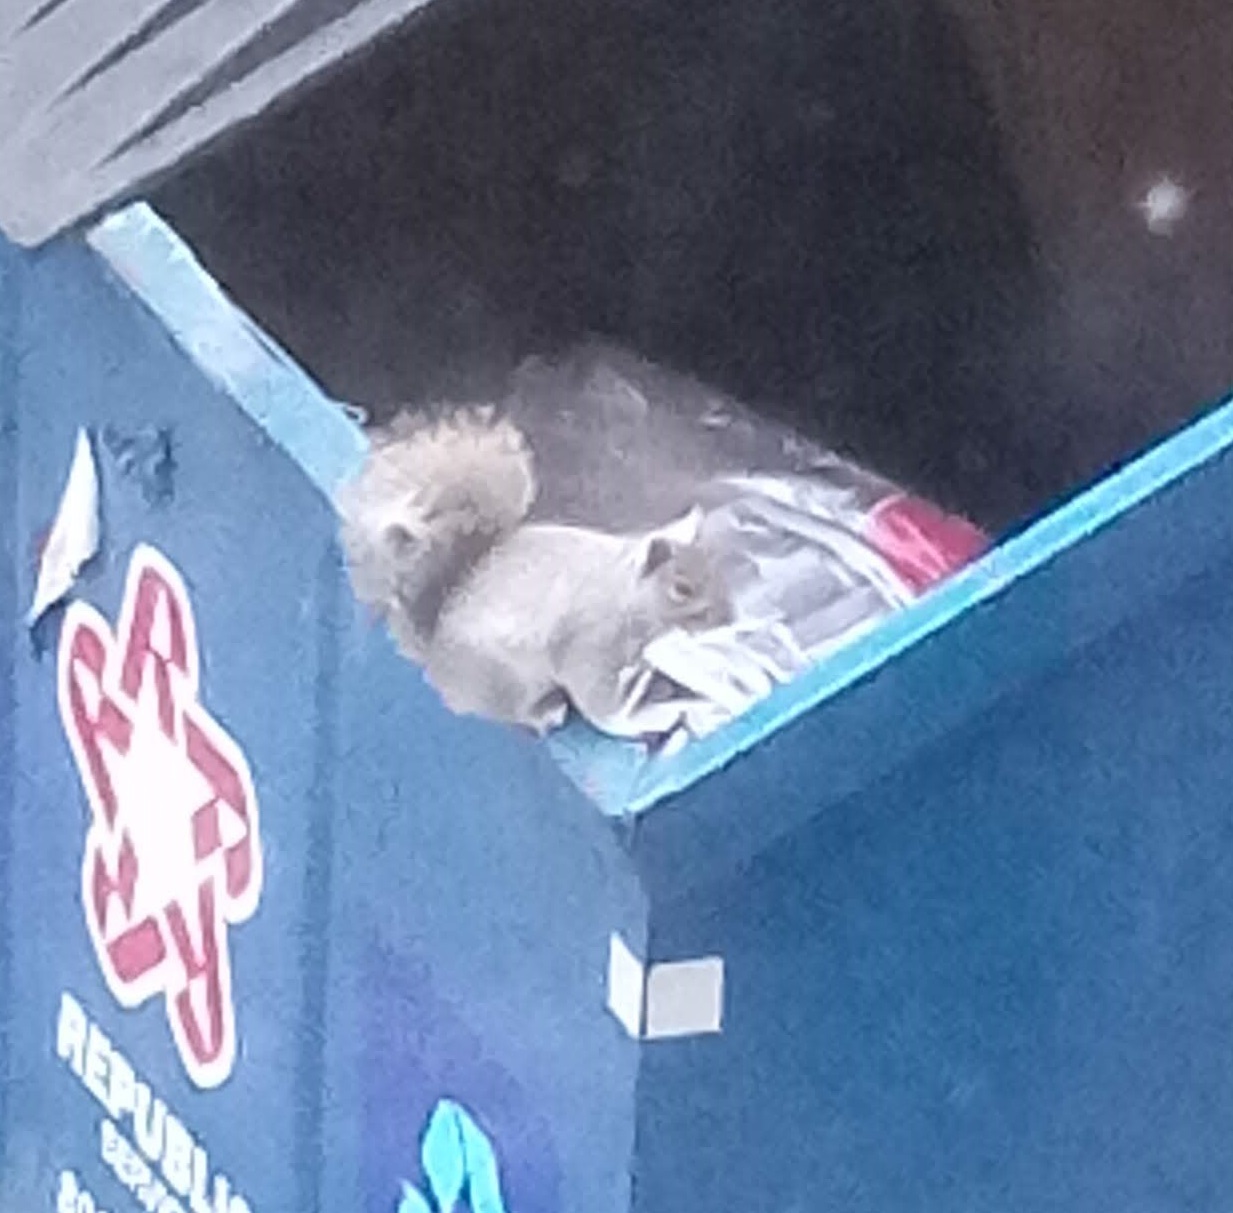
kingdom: Animalia
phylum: Chordata
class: Mammalia
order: Rodentia
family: Sciuridae
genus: Sciurus
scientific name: Sciurus carolinensis
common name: Eastern gray squirrel
